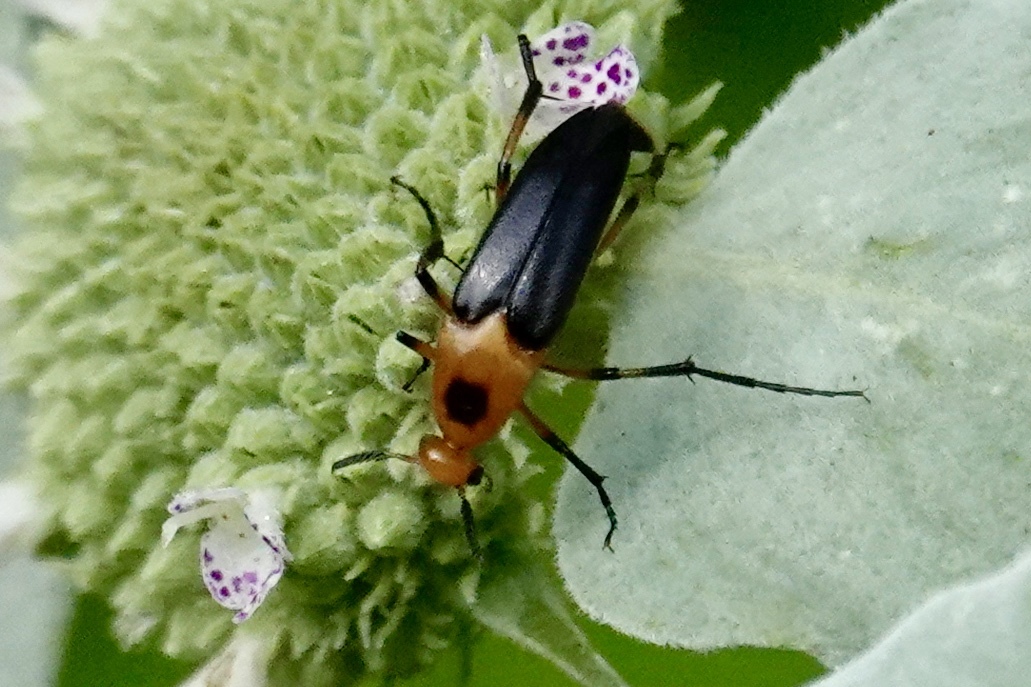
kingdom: Animalia
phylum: Arthropoda
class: Insecta
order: Coleoptera
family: Ripiphoridae
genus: Macrosiagon
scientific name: Macrosiagon limbatum
